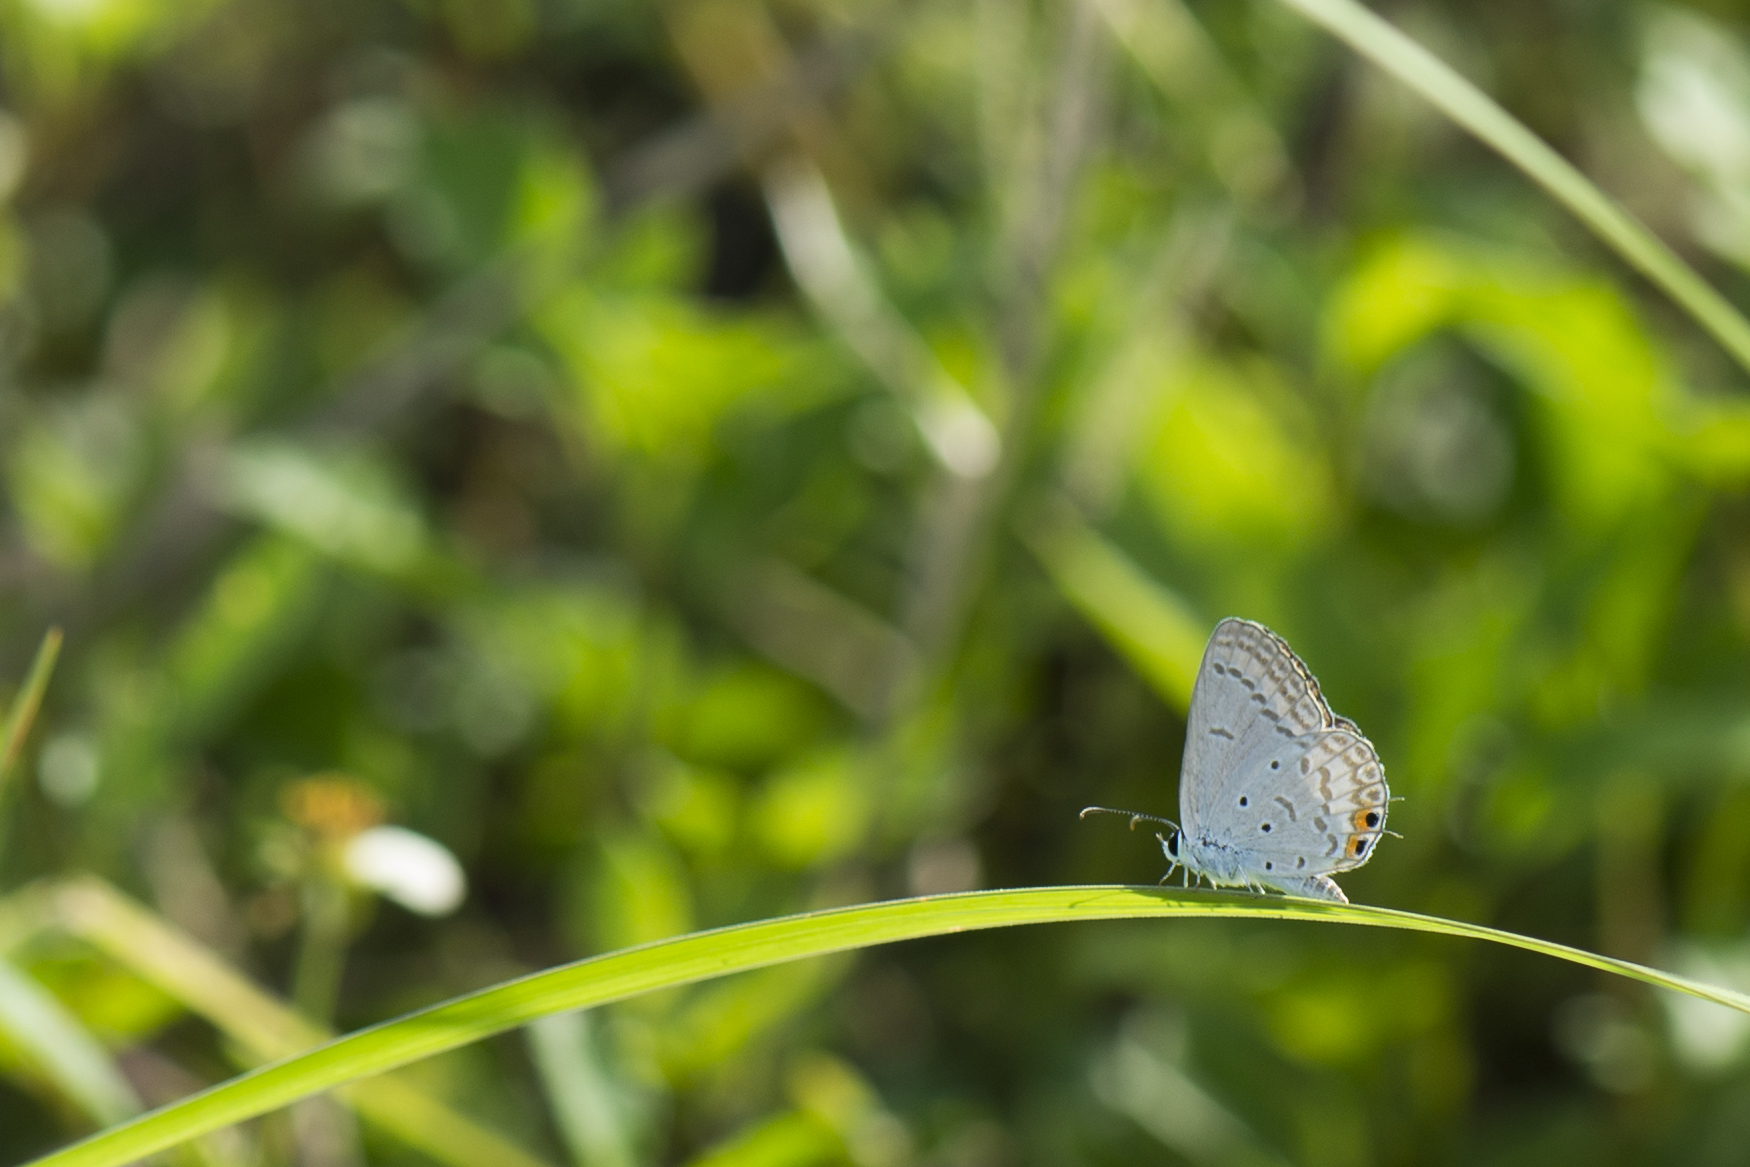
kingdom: Animalia
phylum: Arthropoda
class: Insecta
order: Lepidoptera
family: Lycaenidae
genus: Euchrysops
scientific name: Euchrysops cnejus
